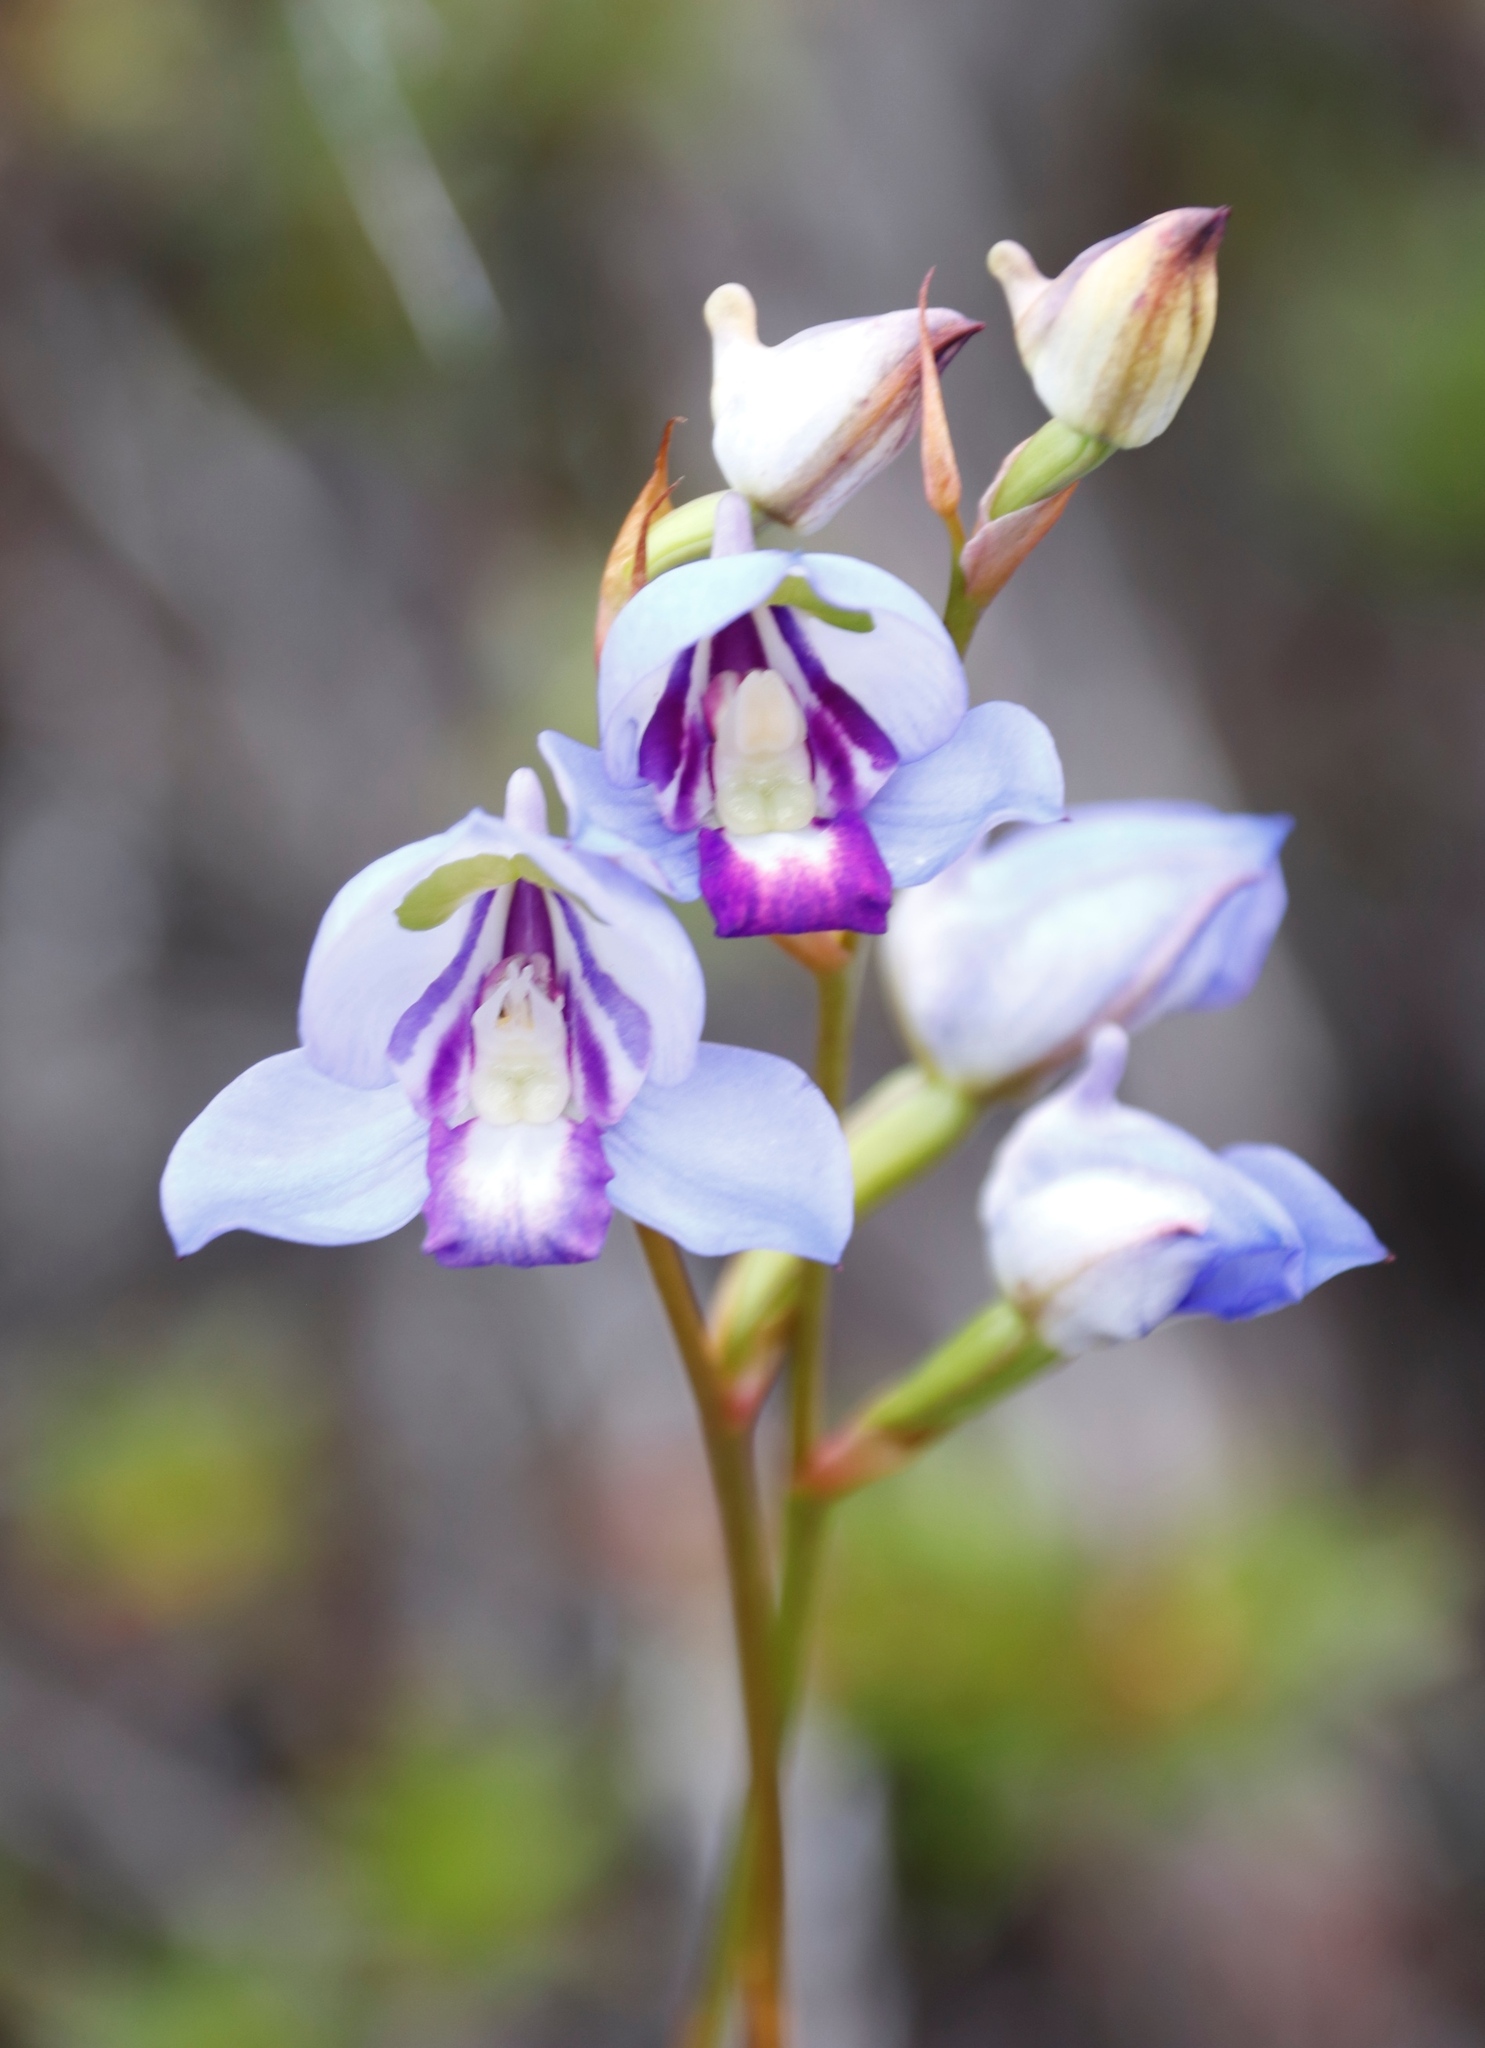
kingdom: Plantae
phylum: Tracheophyta
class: Liliopsida
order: Asparagales
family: Orchidaceae
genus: Disa
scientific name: Disa graminifolia
